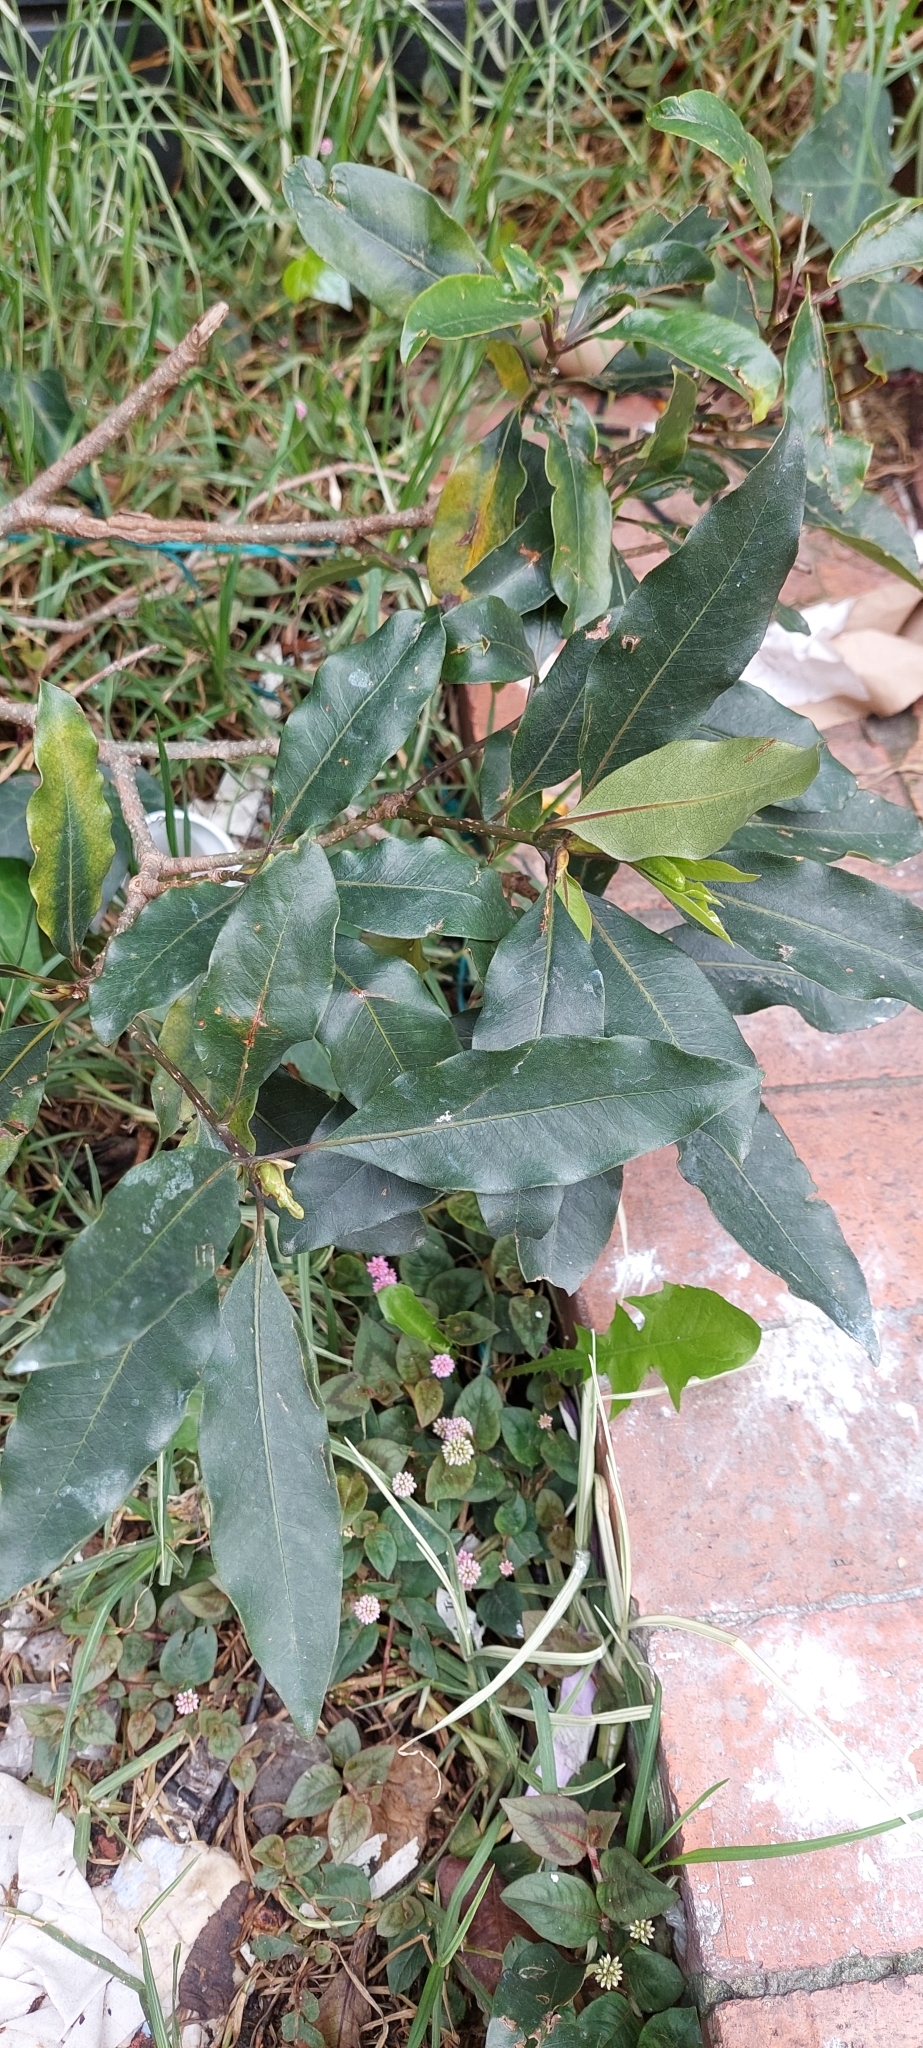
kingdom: Plantae
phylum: Tracheophyta
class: Magnoliopsida
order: Apiales
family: Pittosporaceae
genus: Pittosporum
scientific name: Pittosporum undulatum
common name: Australian cheesewood
